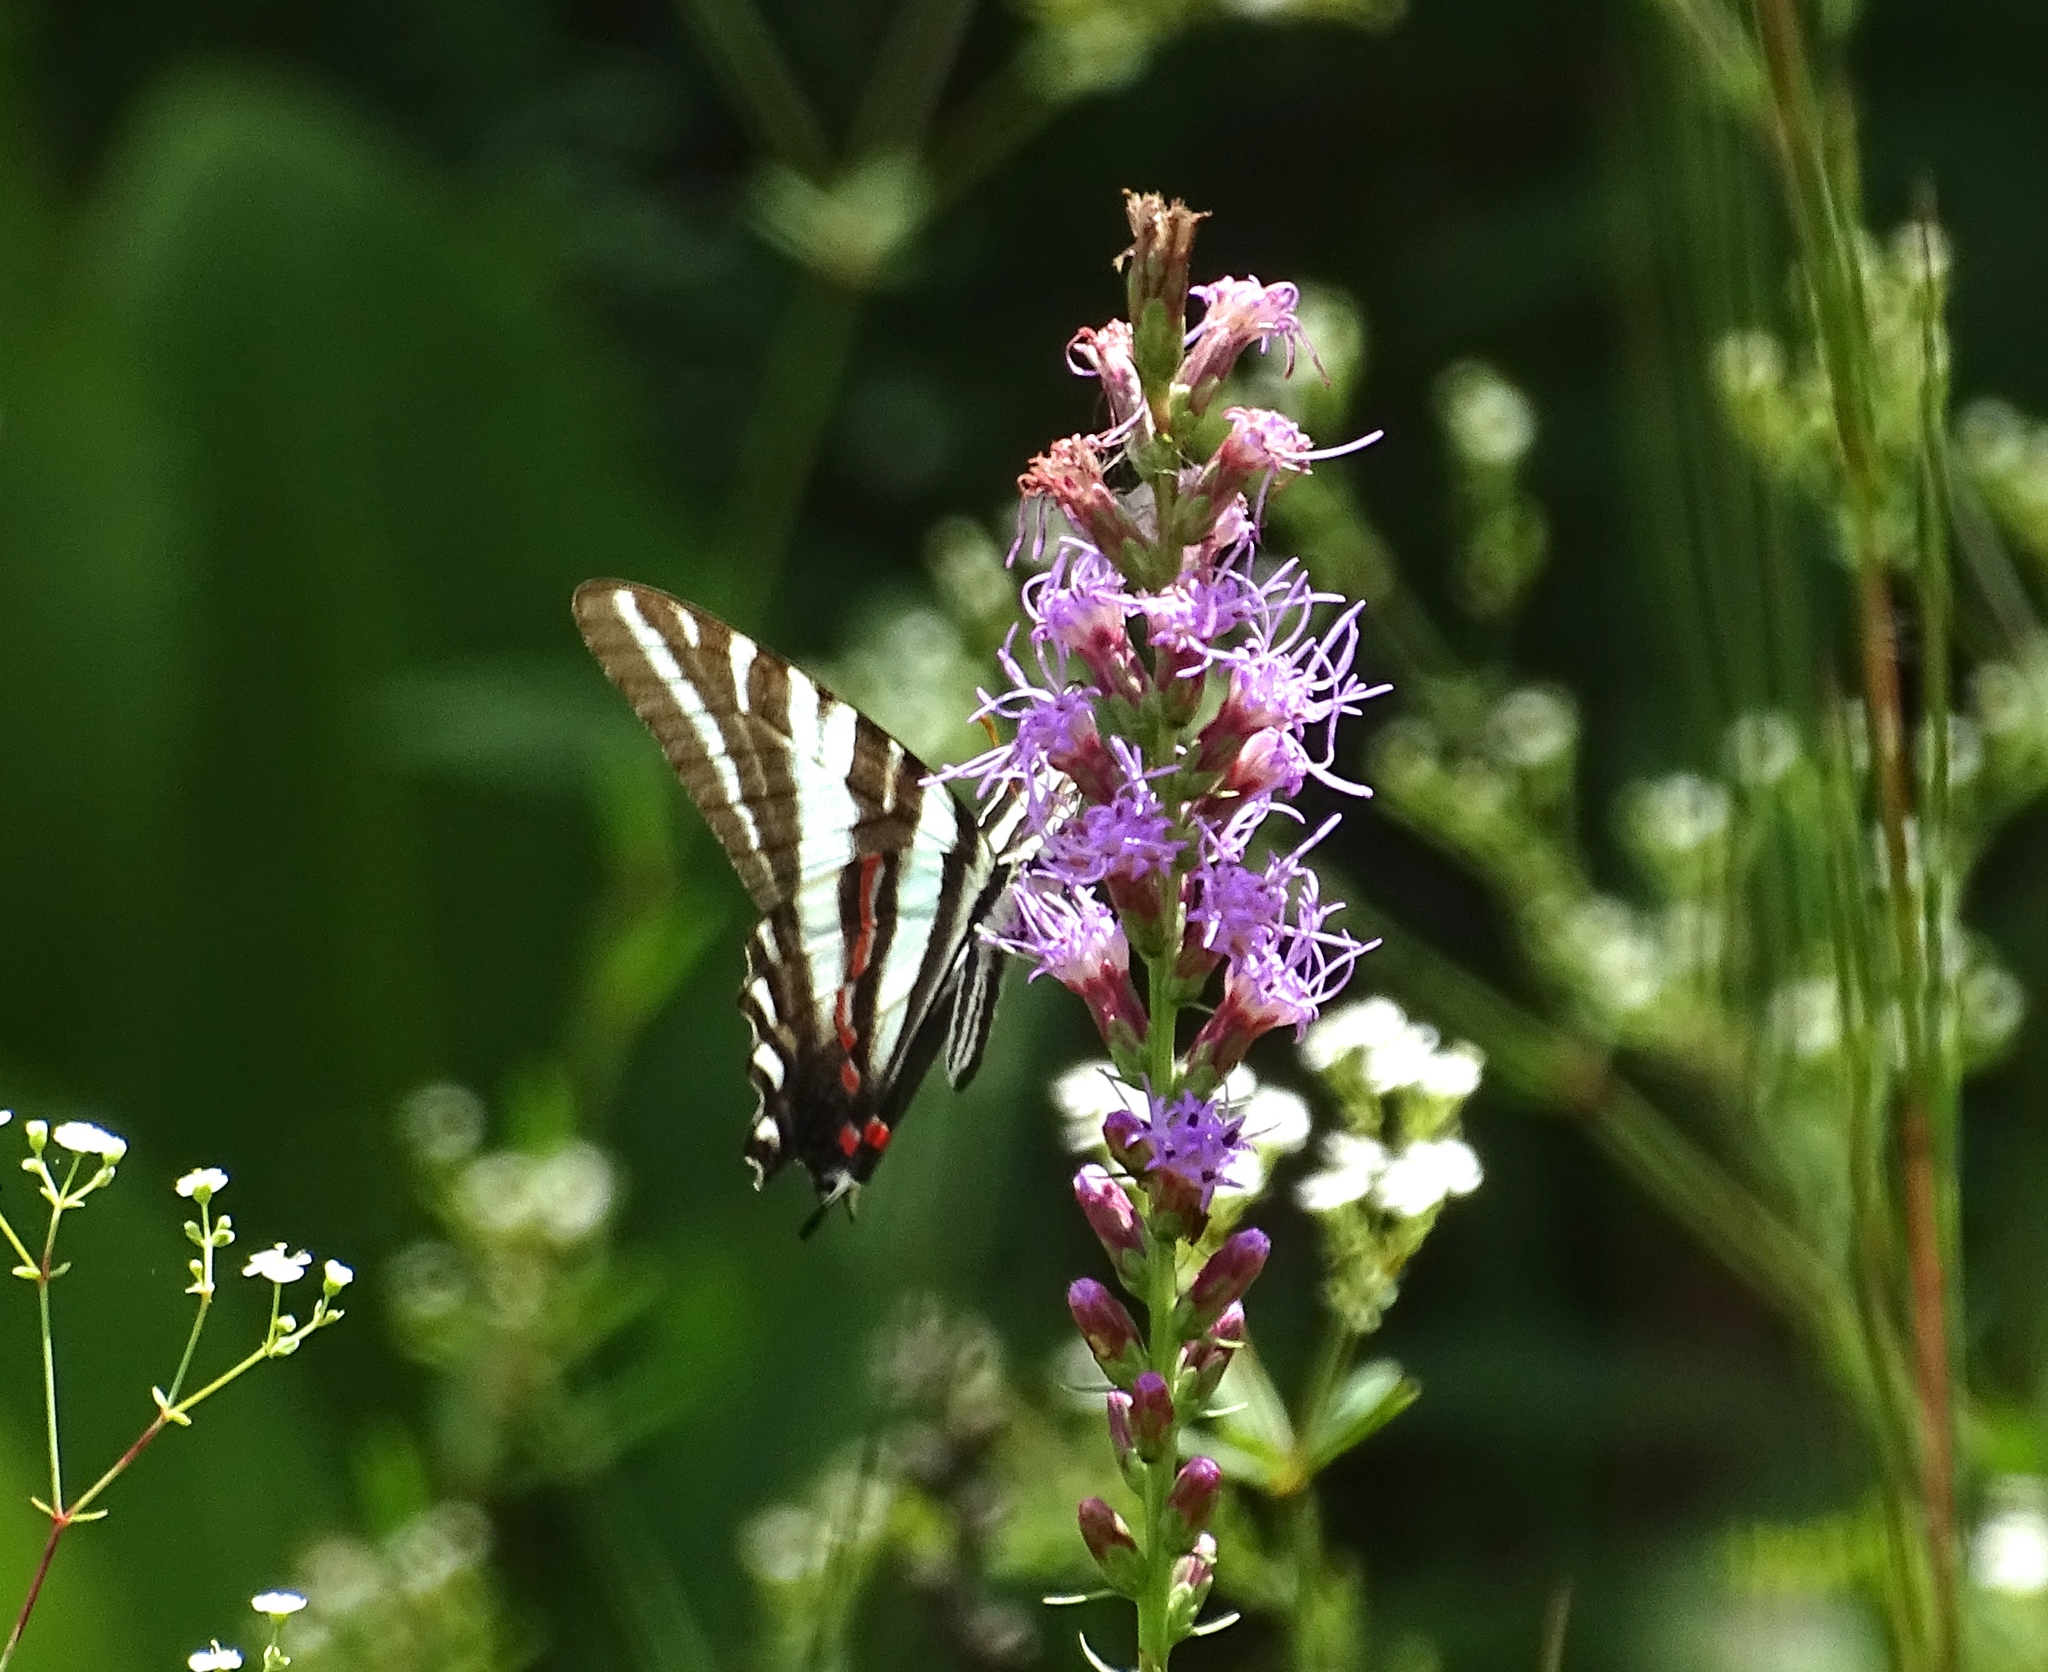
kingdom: Animalia
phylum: Arthropoda
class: Insecta
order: Lepidoptera
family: Papilionidae
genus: Protographium
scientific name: Protographium marcellus
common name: Zebra swallowtail
